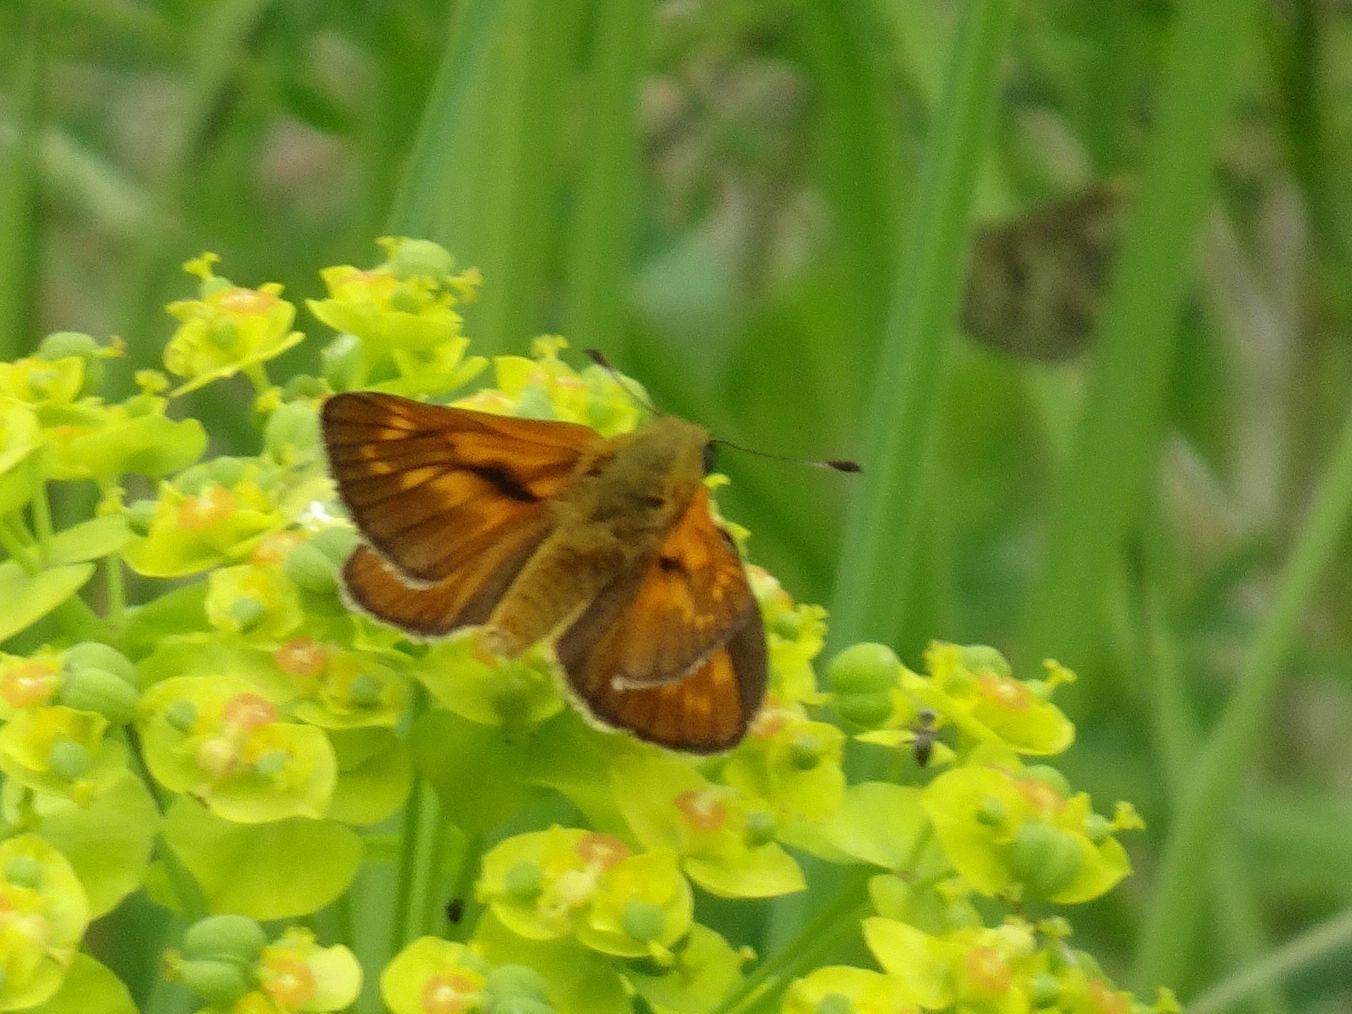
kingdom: Animalia
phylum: Arthropoda
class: Insecta
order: Lepidoptera
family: Hesperiidae
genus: Ochlodes
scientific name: Ochlodes venata
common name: Large skipper
